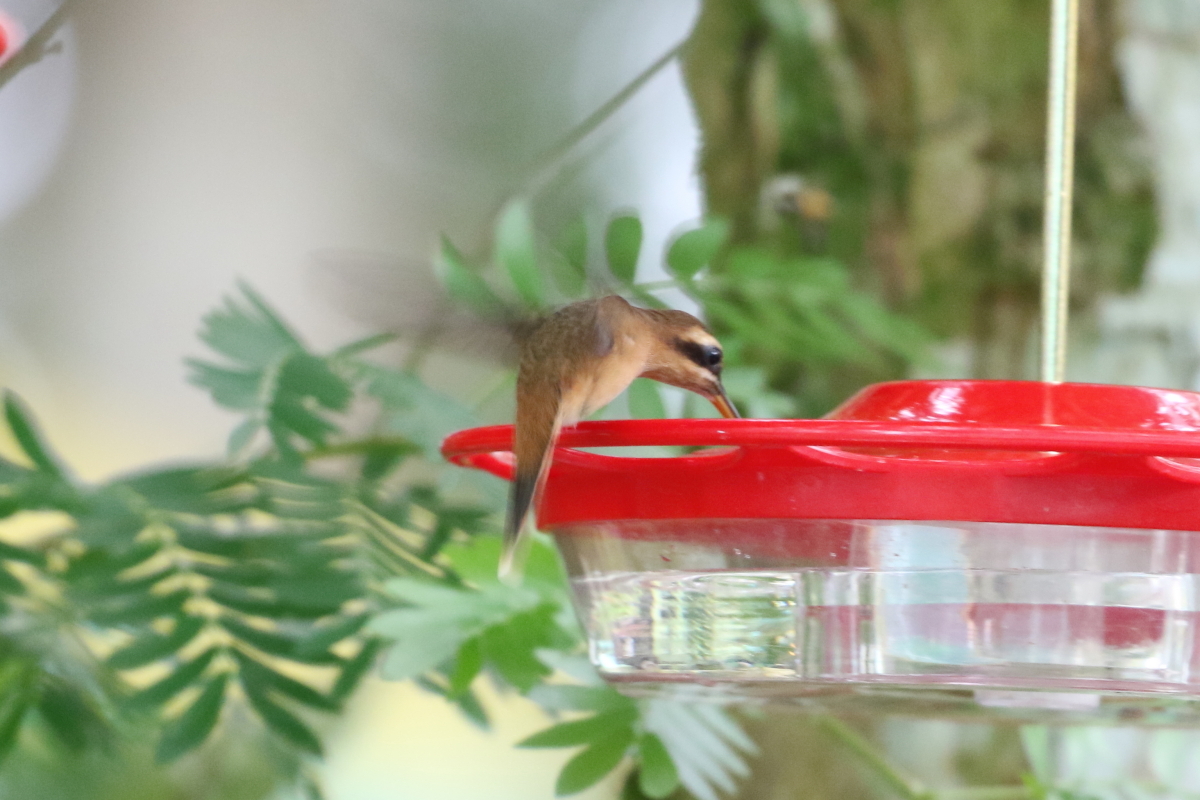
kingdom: Animalia
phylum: Chordata
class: Aves
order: Apodiformes
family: Trochilidae
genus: Phaethornis
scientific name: Phaethornis striigularis
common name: Stripe-throated hermit
